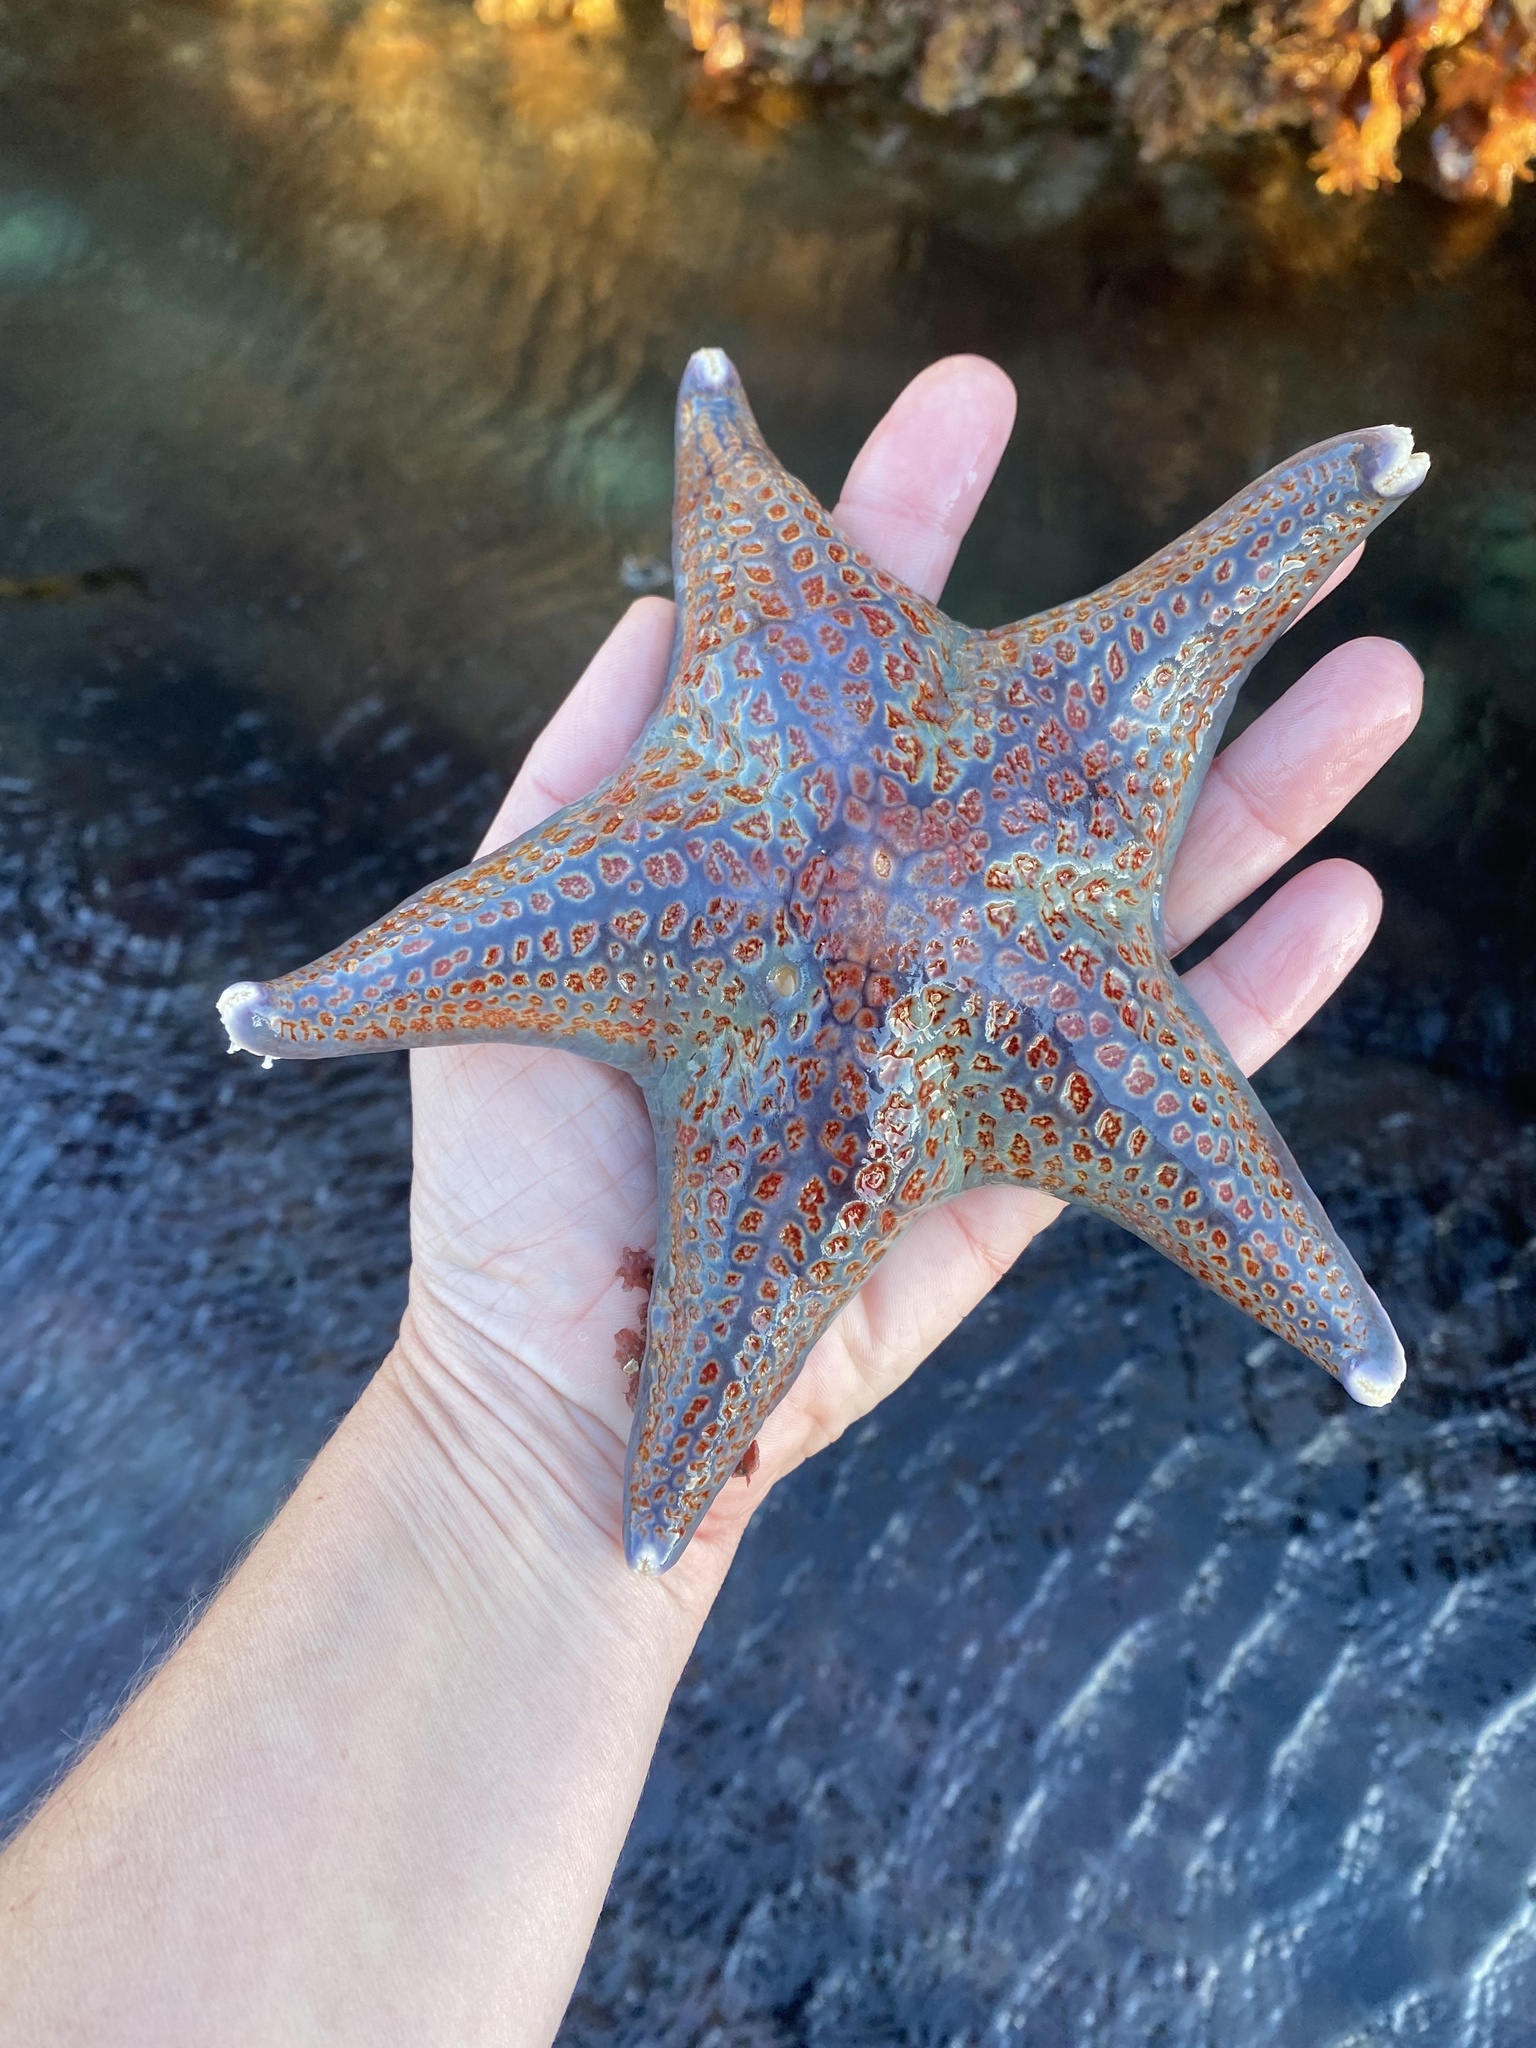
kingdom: Animalia
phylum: Echinodermata
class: Asteroidea
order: Valvatida
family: Asteropseidae
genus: Dermasterias
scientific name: Dermasterias imbricata
